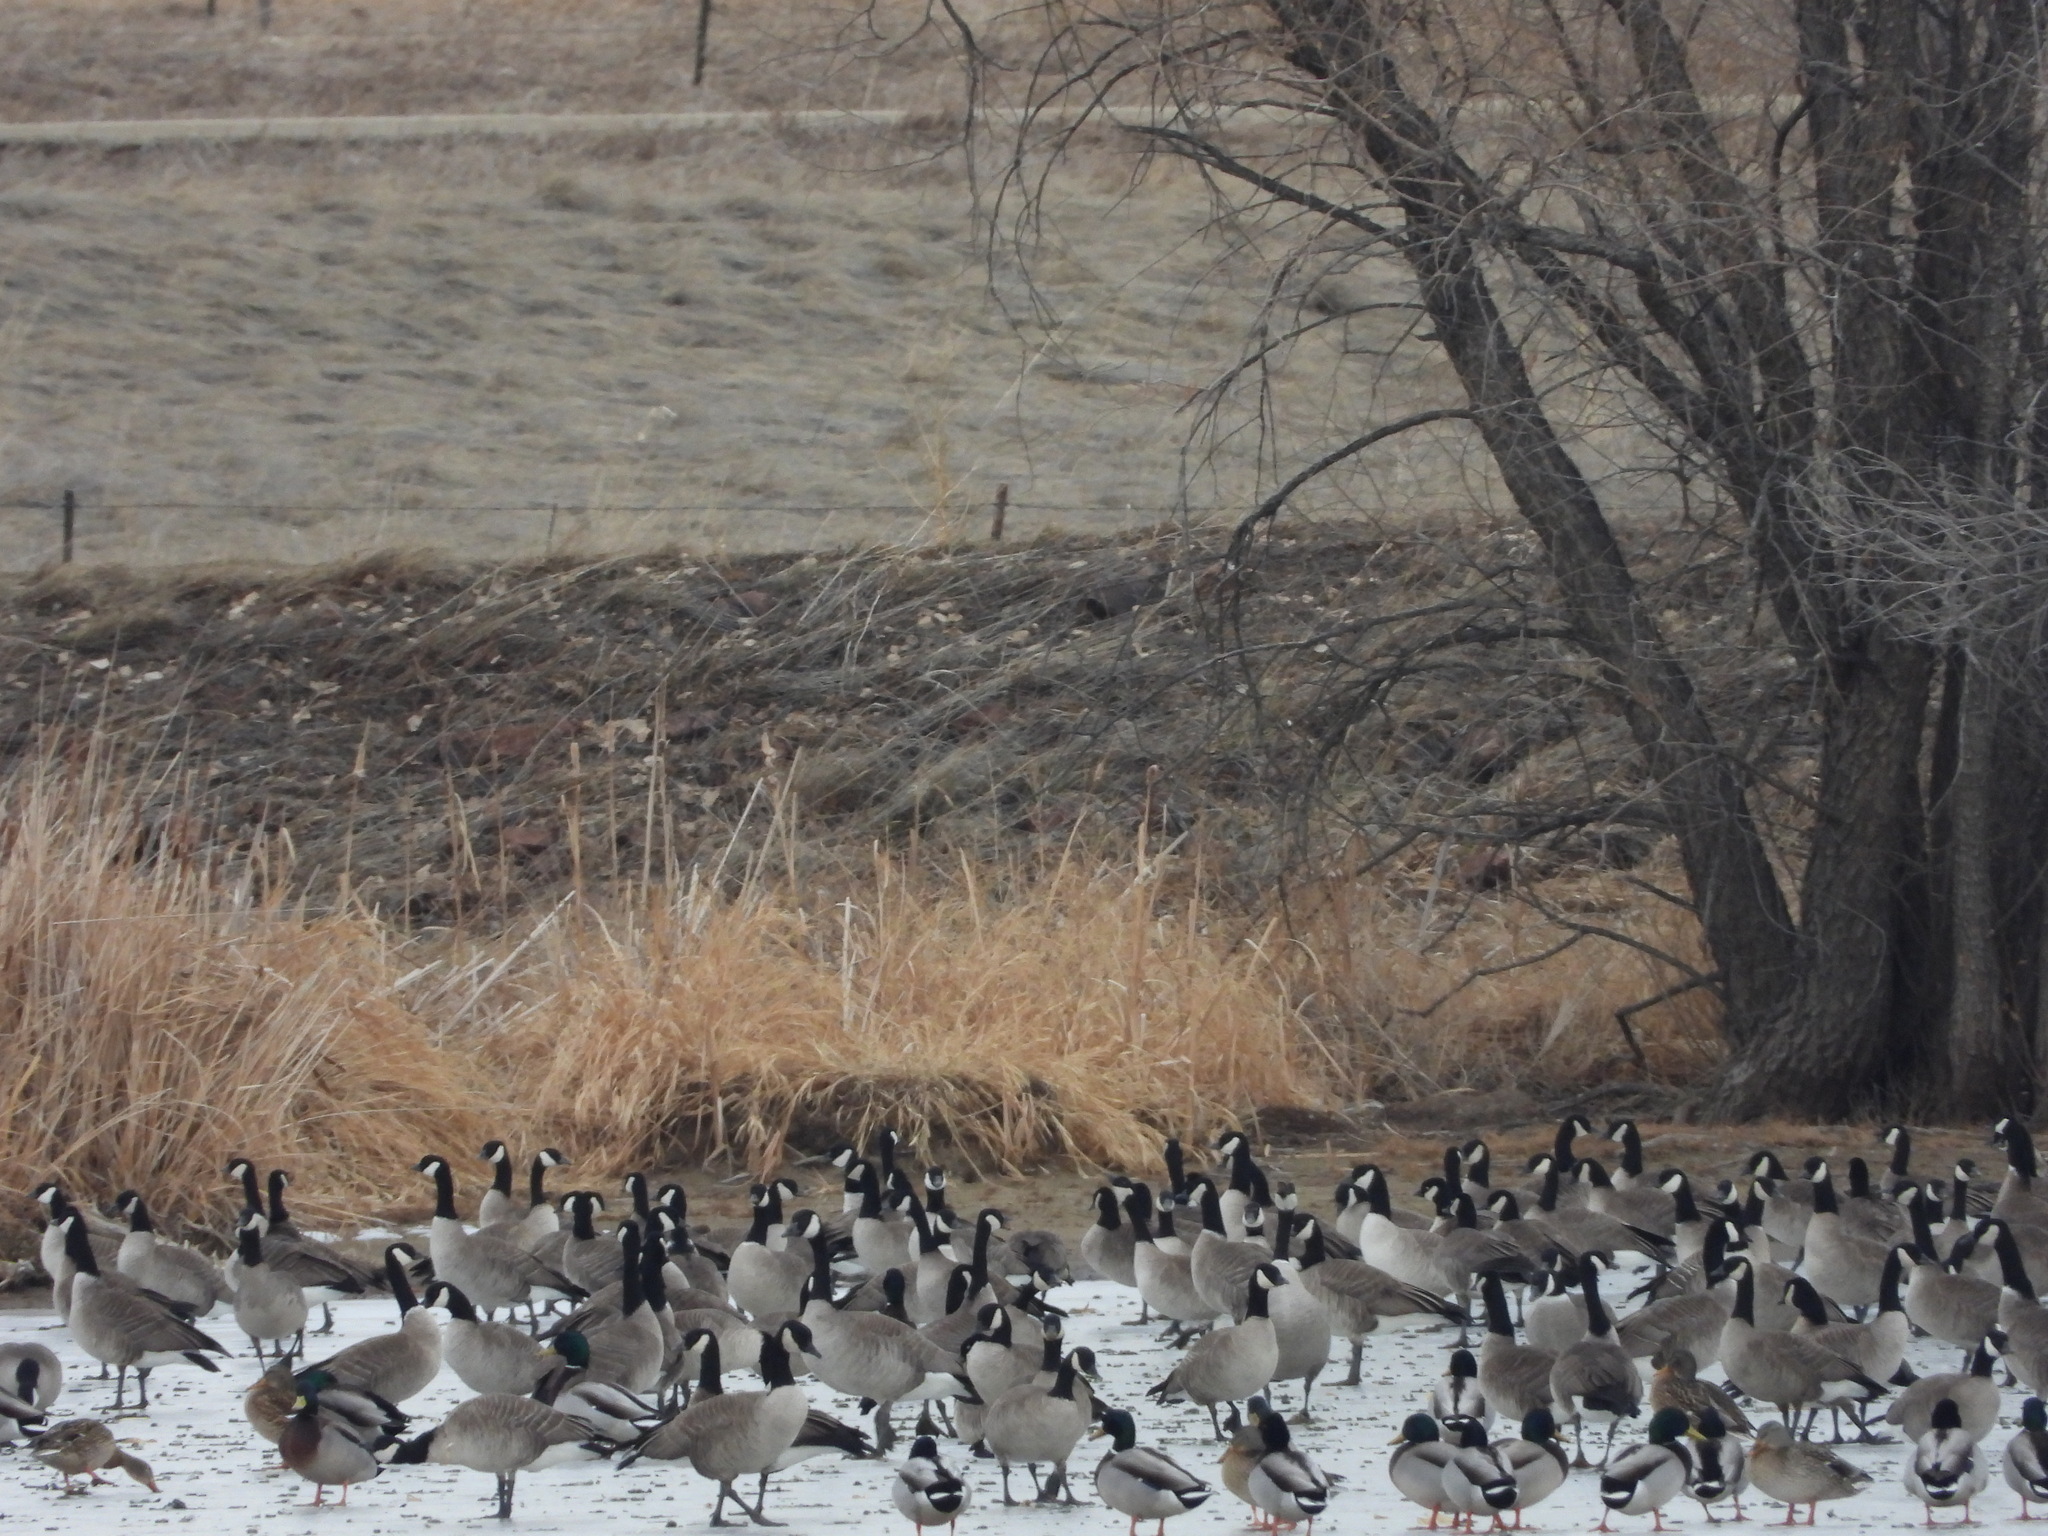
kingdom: Animalia
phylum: Chordata
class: Aves
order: Anseriformes
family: Anatidae
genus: Branta
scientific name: Branta hutchinsii
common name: Cackling goose
